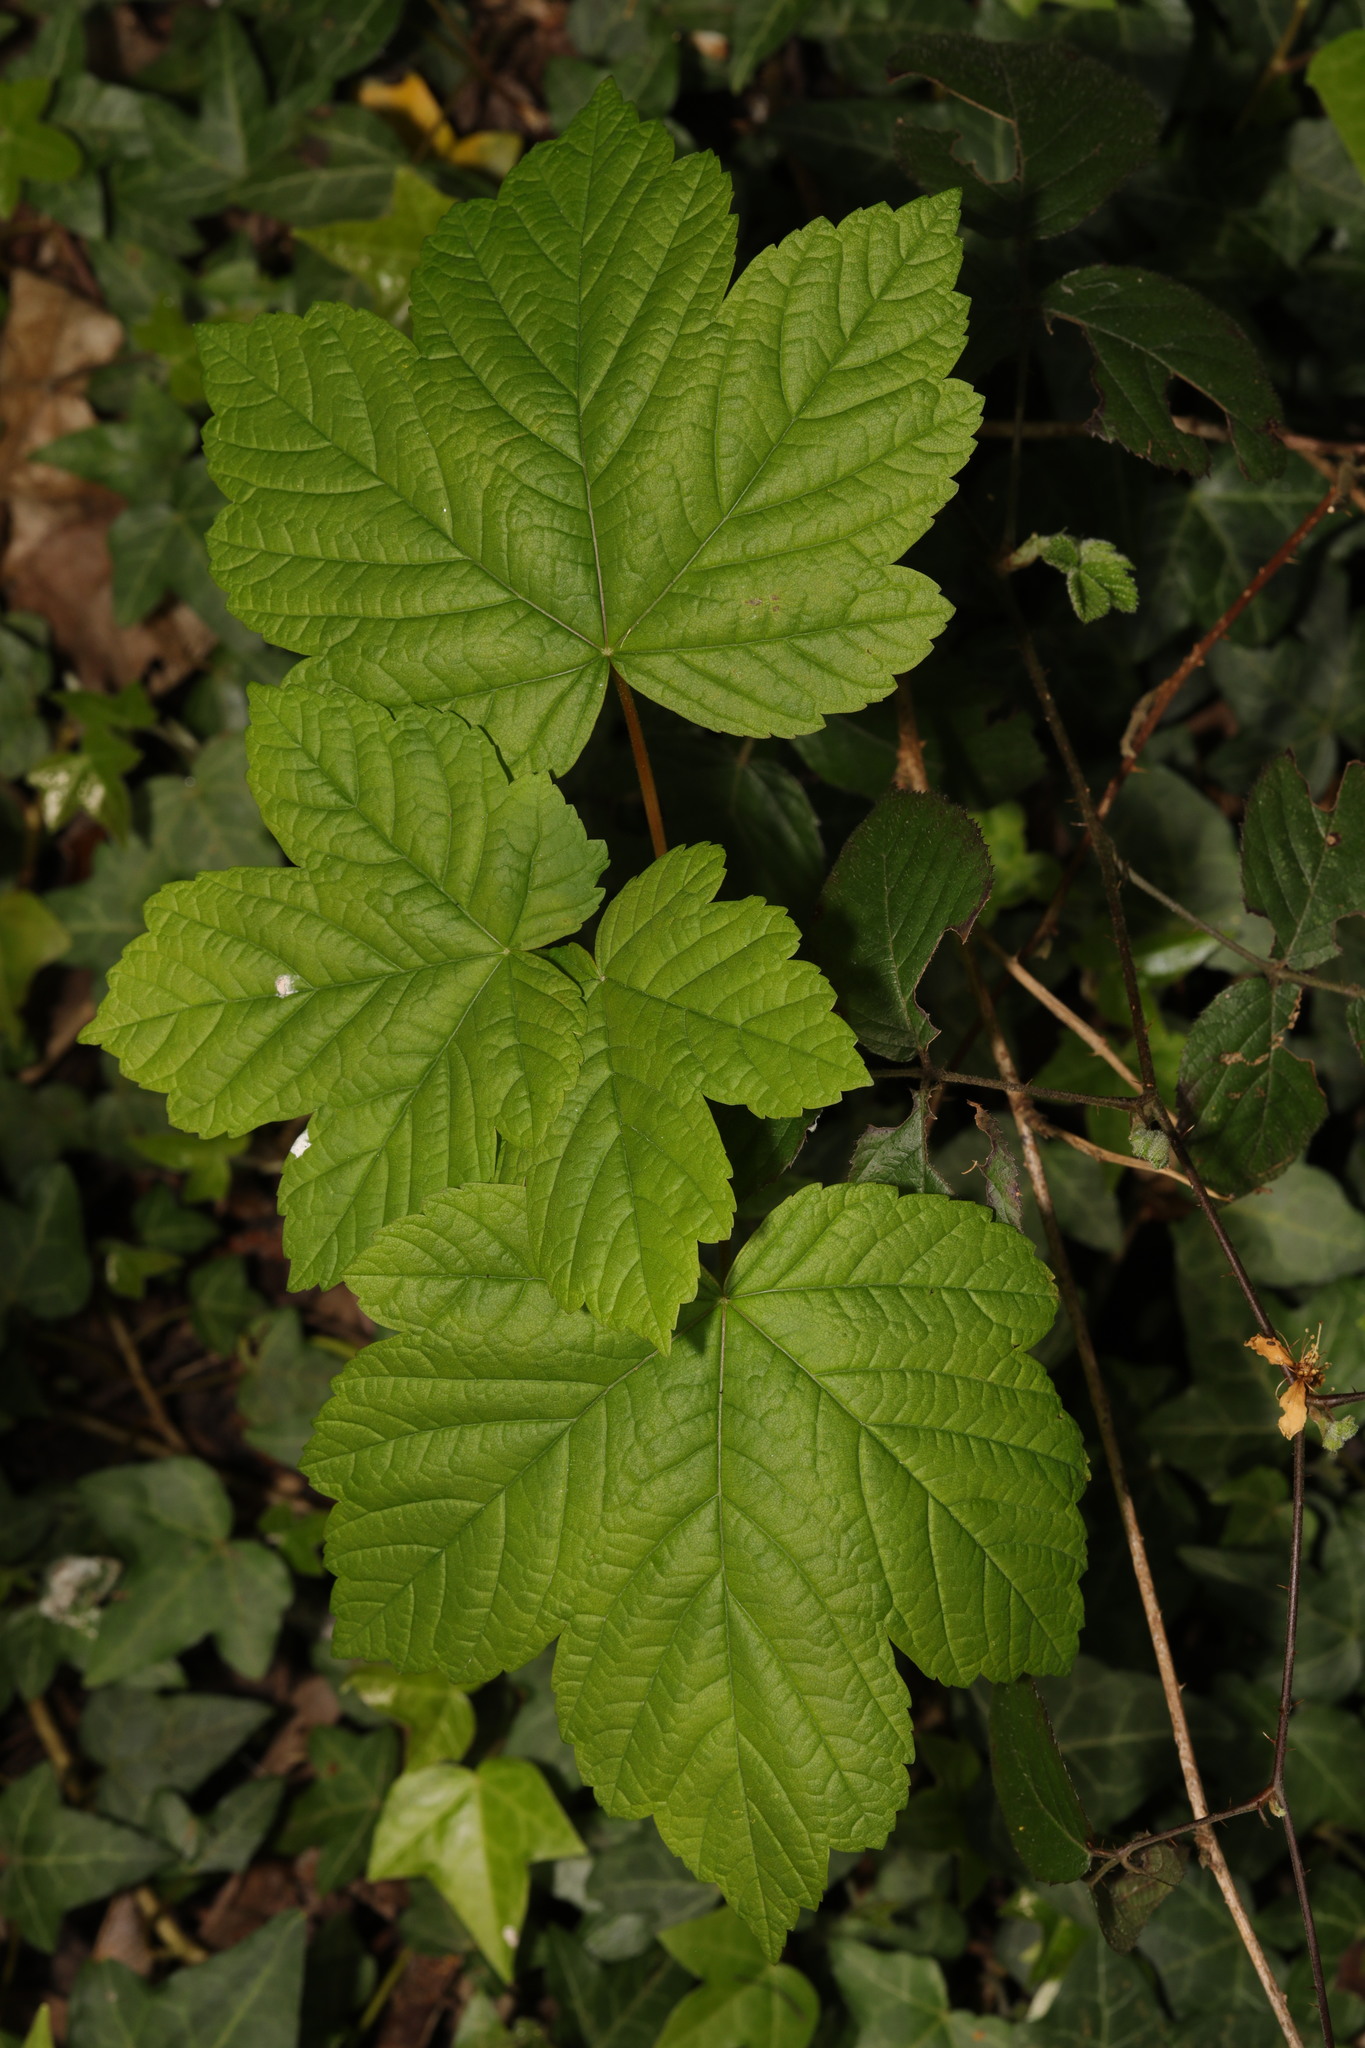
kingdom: Plantae
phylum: Tracheophyta
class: Magnoliopsida
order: Sapindales
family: Sapindaceae
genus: Acer
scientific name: Acer pseudoplatanus
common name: Sycamore
